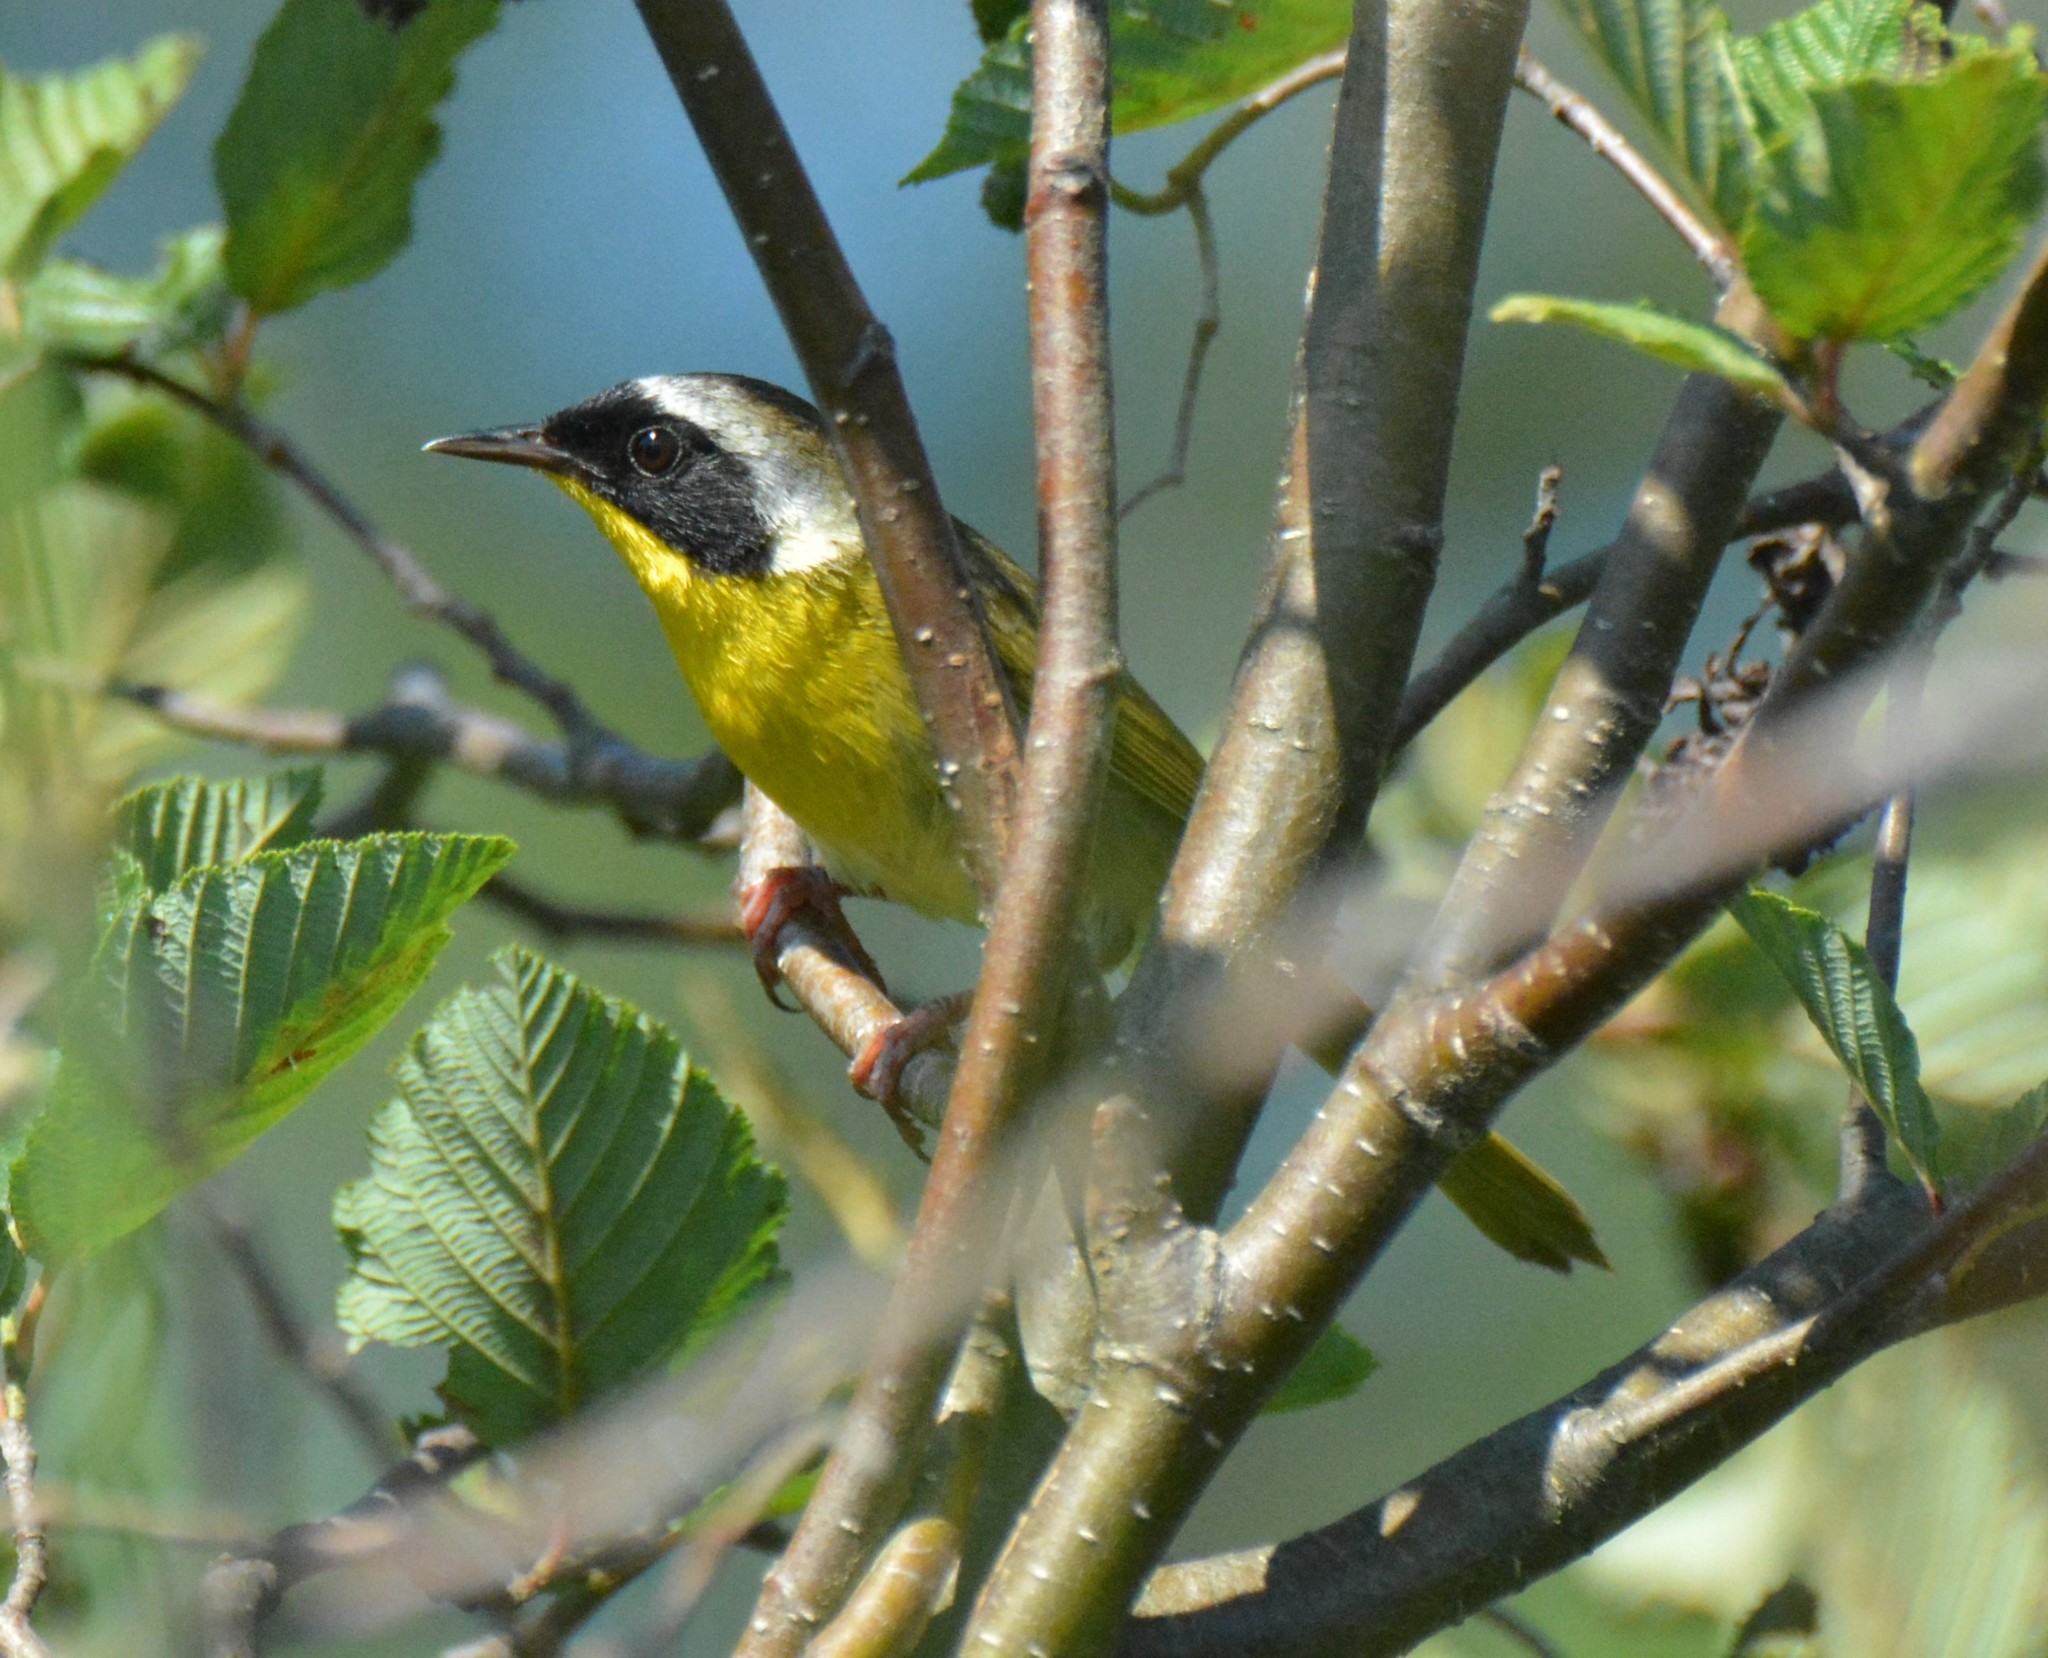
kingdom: Animalia
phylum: Chordata
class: Aves
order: Passeriformes
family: Parulidae
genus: Geothlypis
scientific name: Geothlypis trichas
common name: Common yellowthroat
